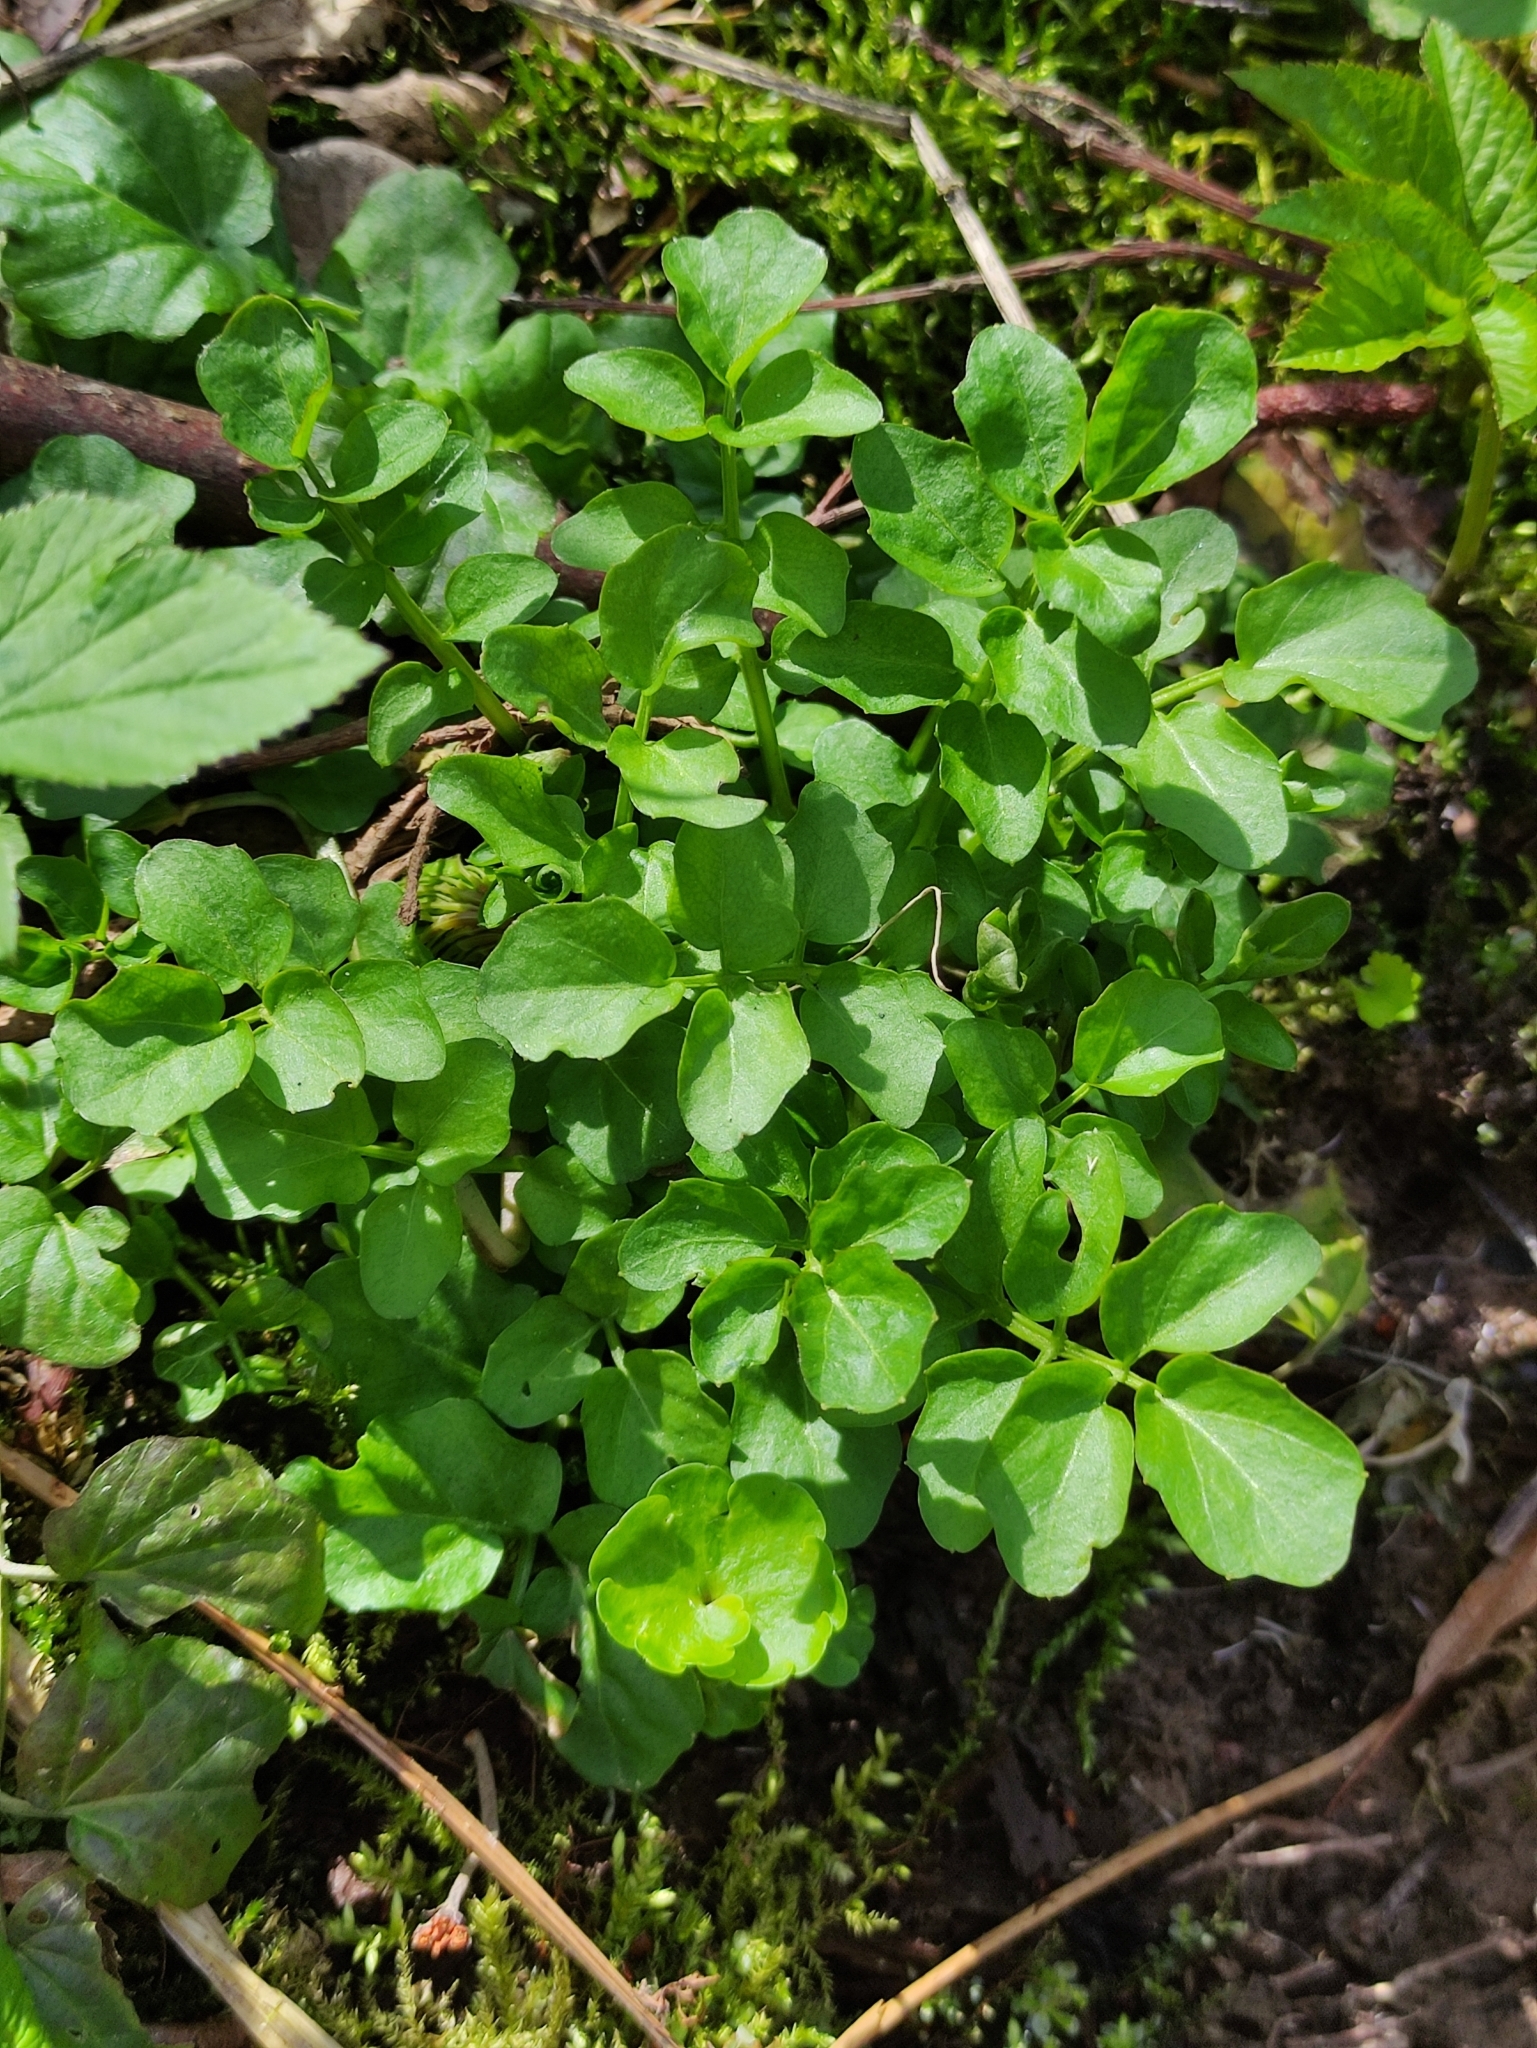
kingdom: Plantae
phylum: Tracheophyta
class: Magnoliopsida
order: Brassicales
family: Brassicaceae
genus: Cardamine
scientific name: Cardamine amara
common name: Large bitter-cress
